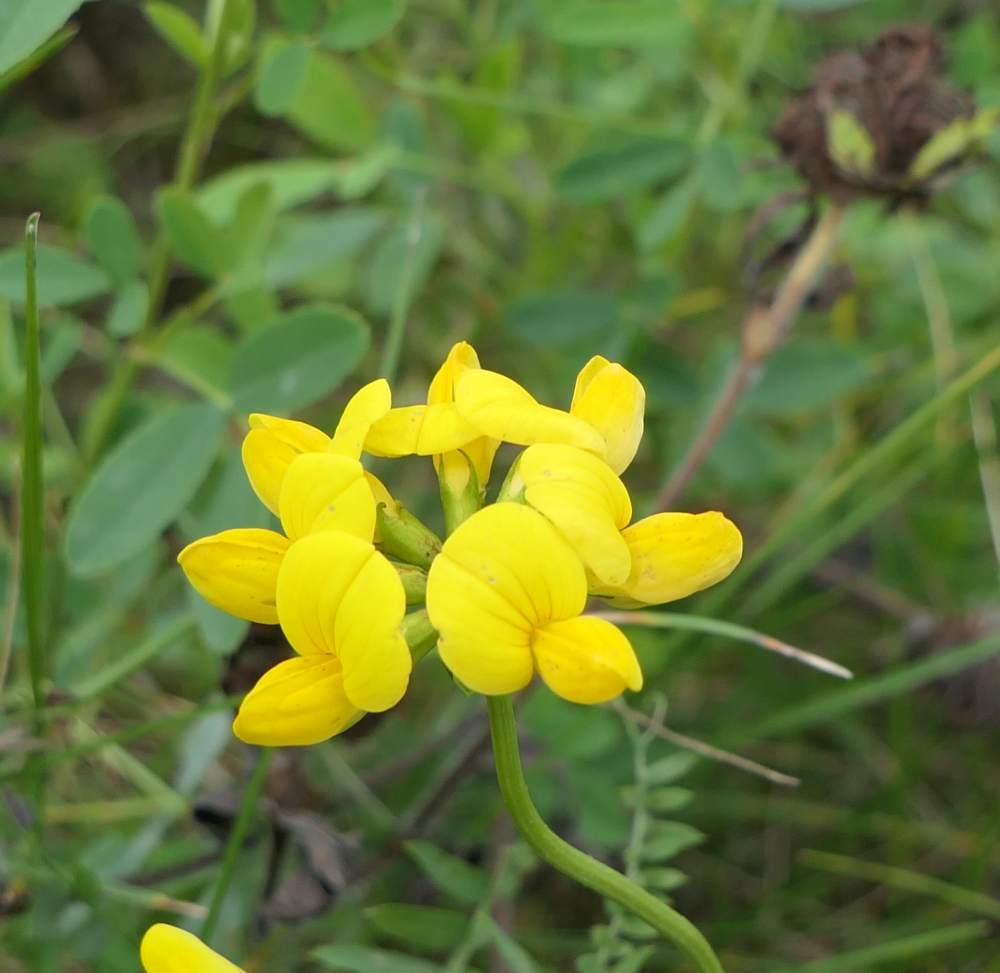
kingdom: Plantae
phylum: Tracheophyta
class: Magnoliopsida
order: Fabales
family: Fabaceae
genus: Lotus
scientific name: Lotus corniculatus
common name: Common bird's-foot-trefoil
